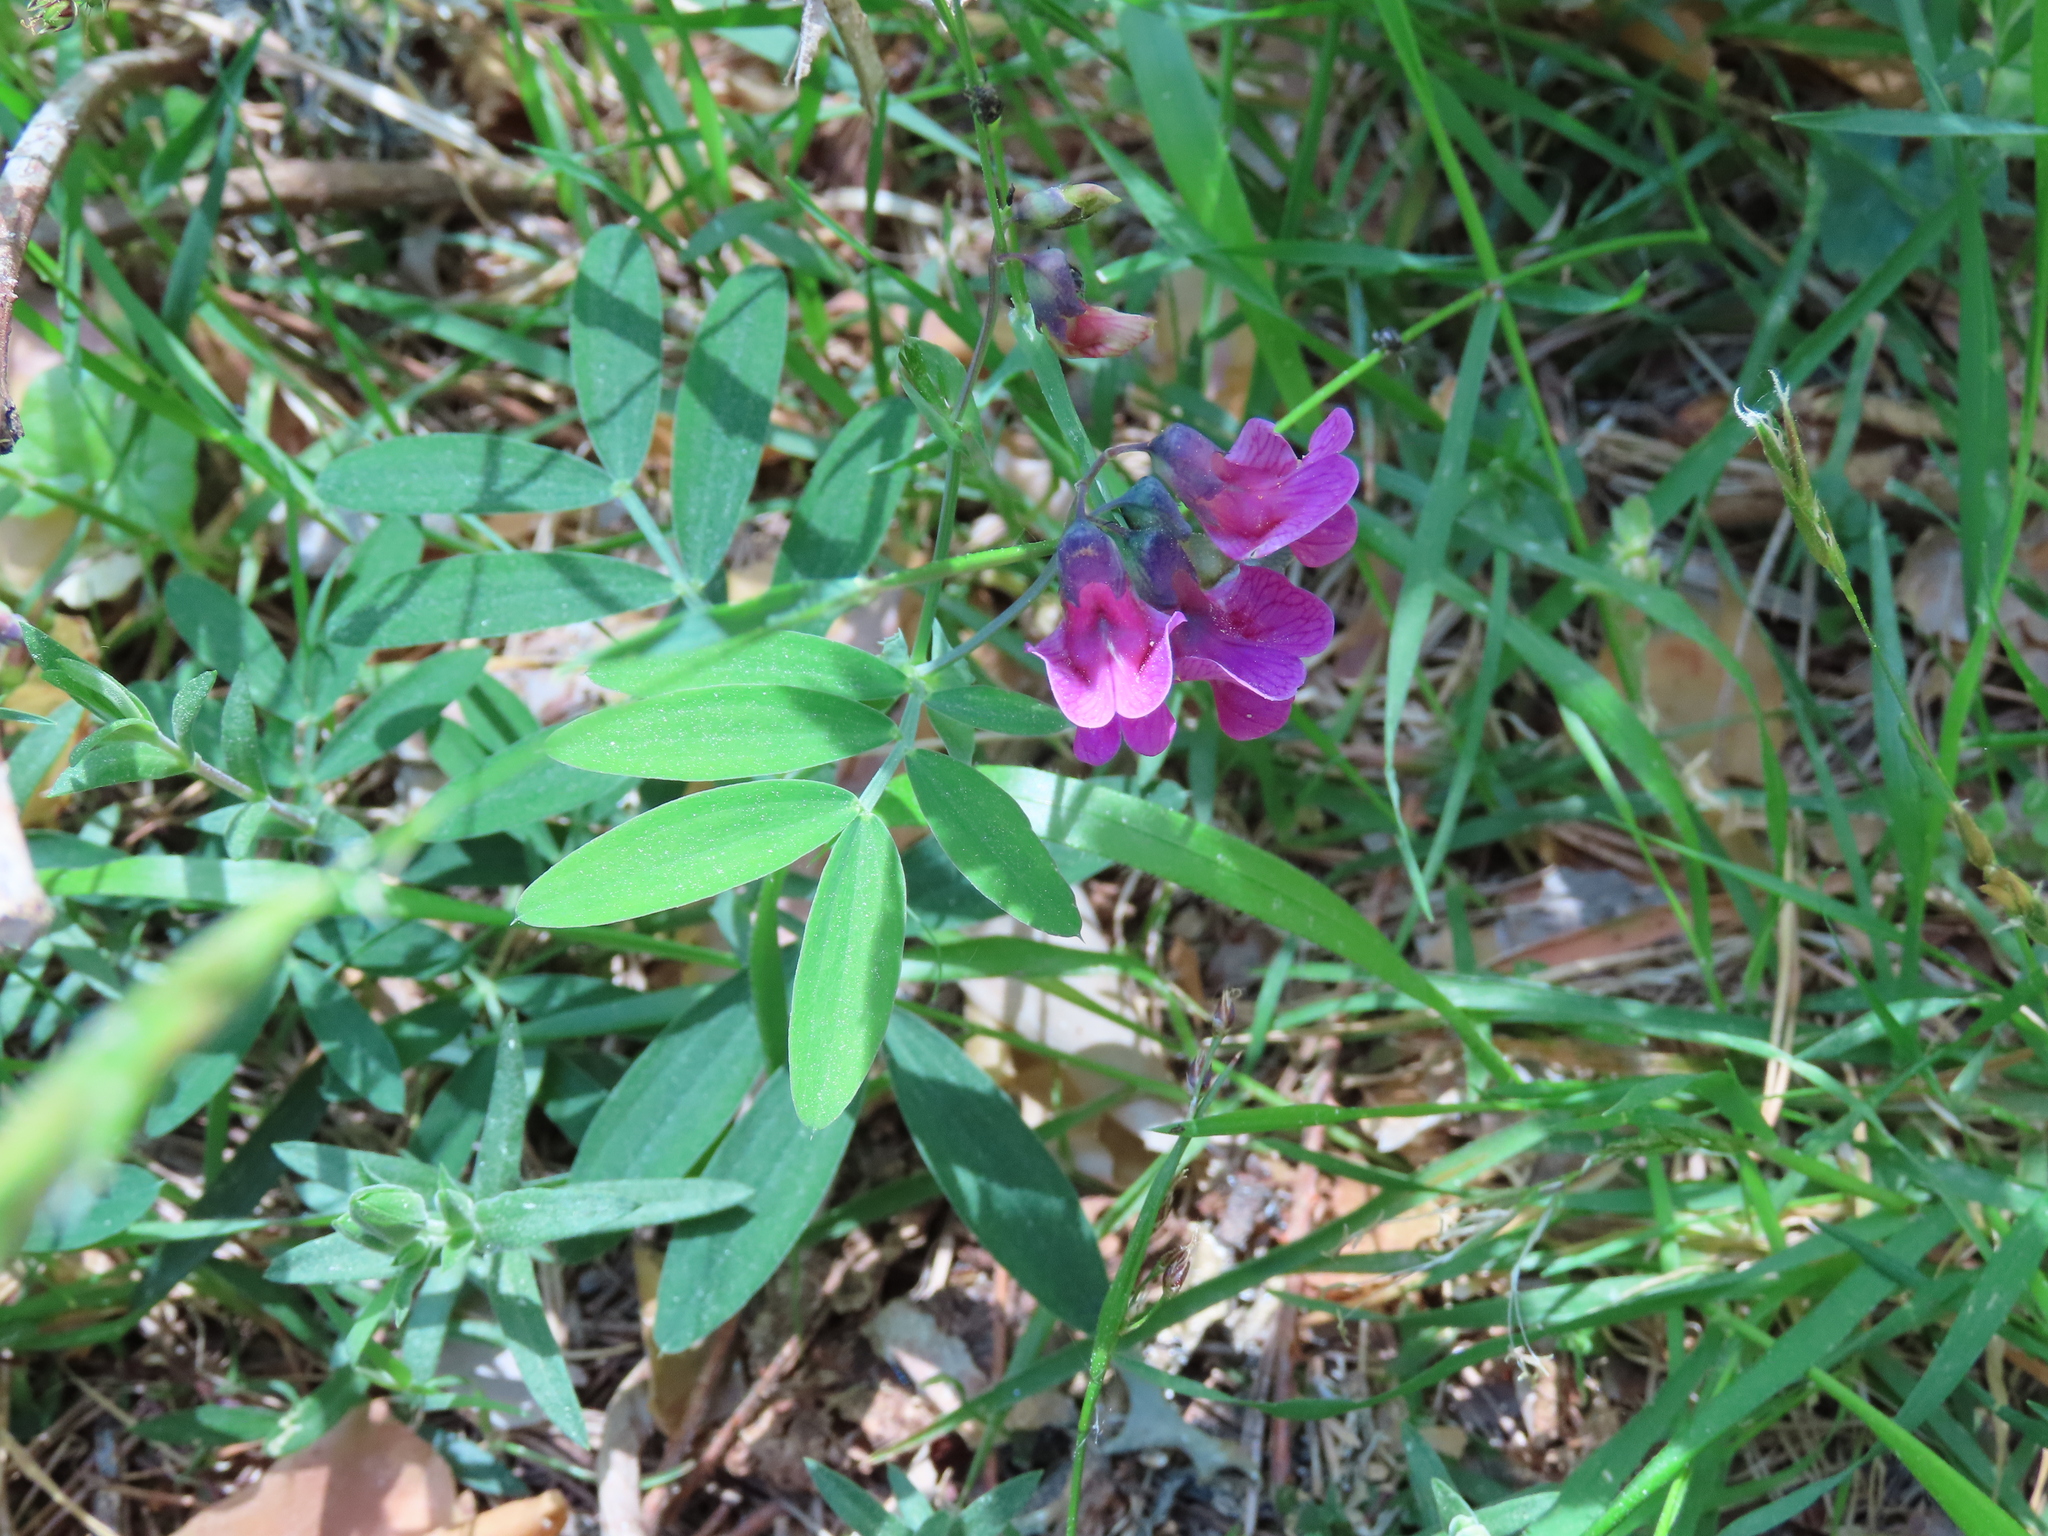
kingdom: Plantae
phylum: Tracheophyta
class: Magnoliopsida
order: Fabales
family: Fabaceae
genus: Lathyrus
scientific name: Lathyrus linifolius
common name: Bitter-vetch
